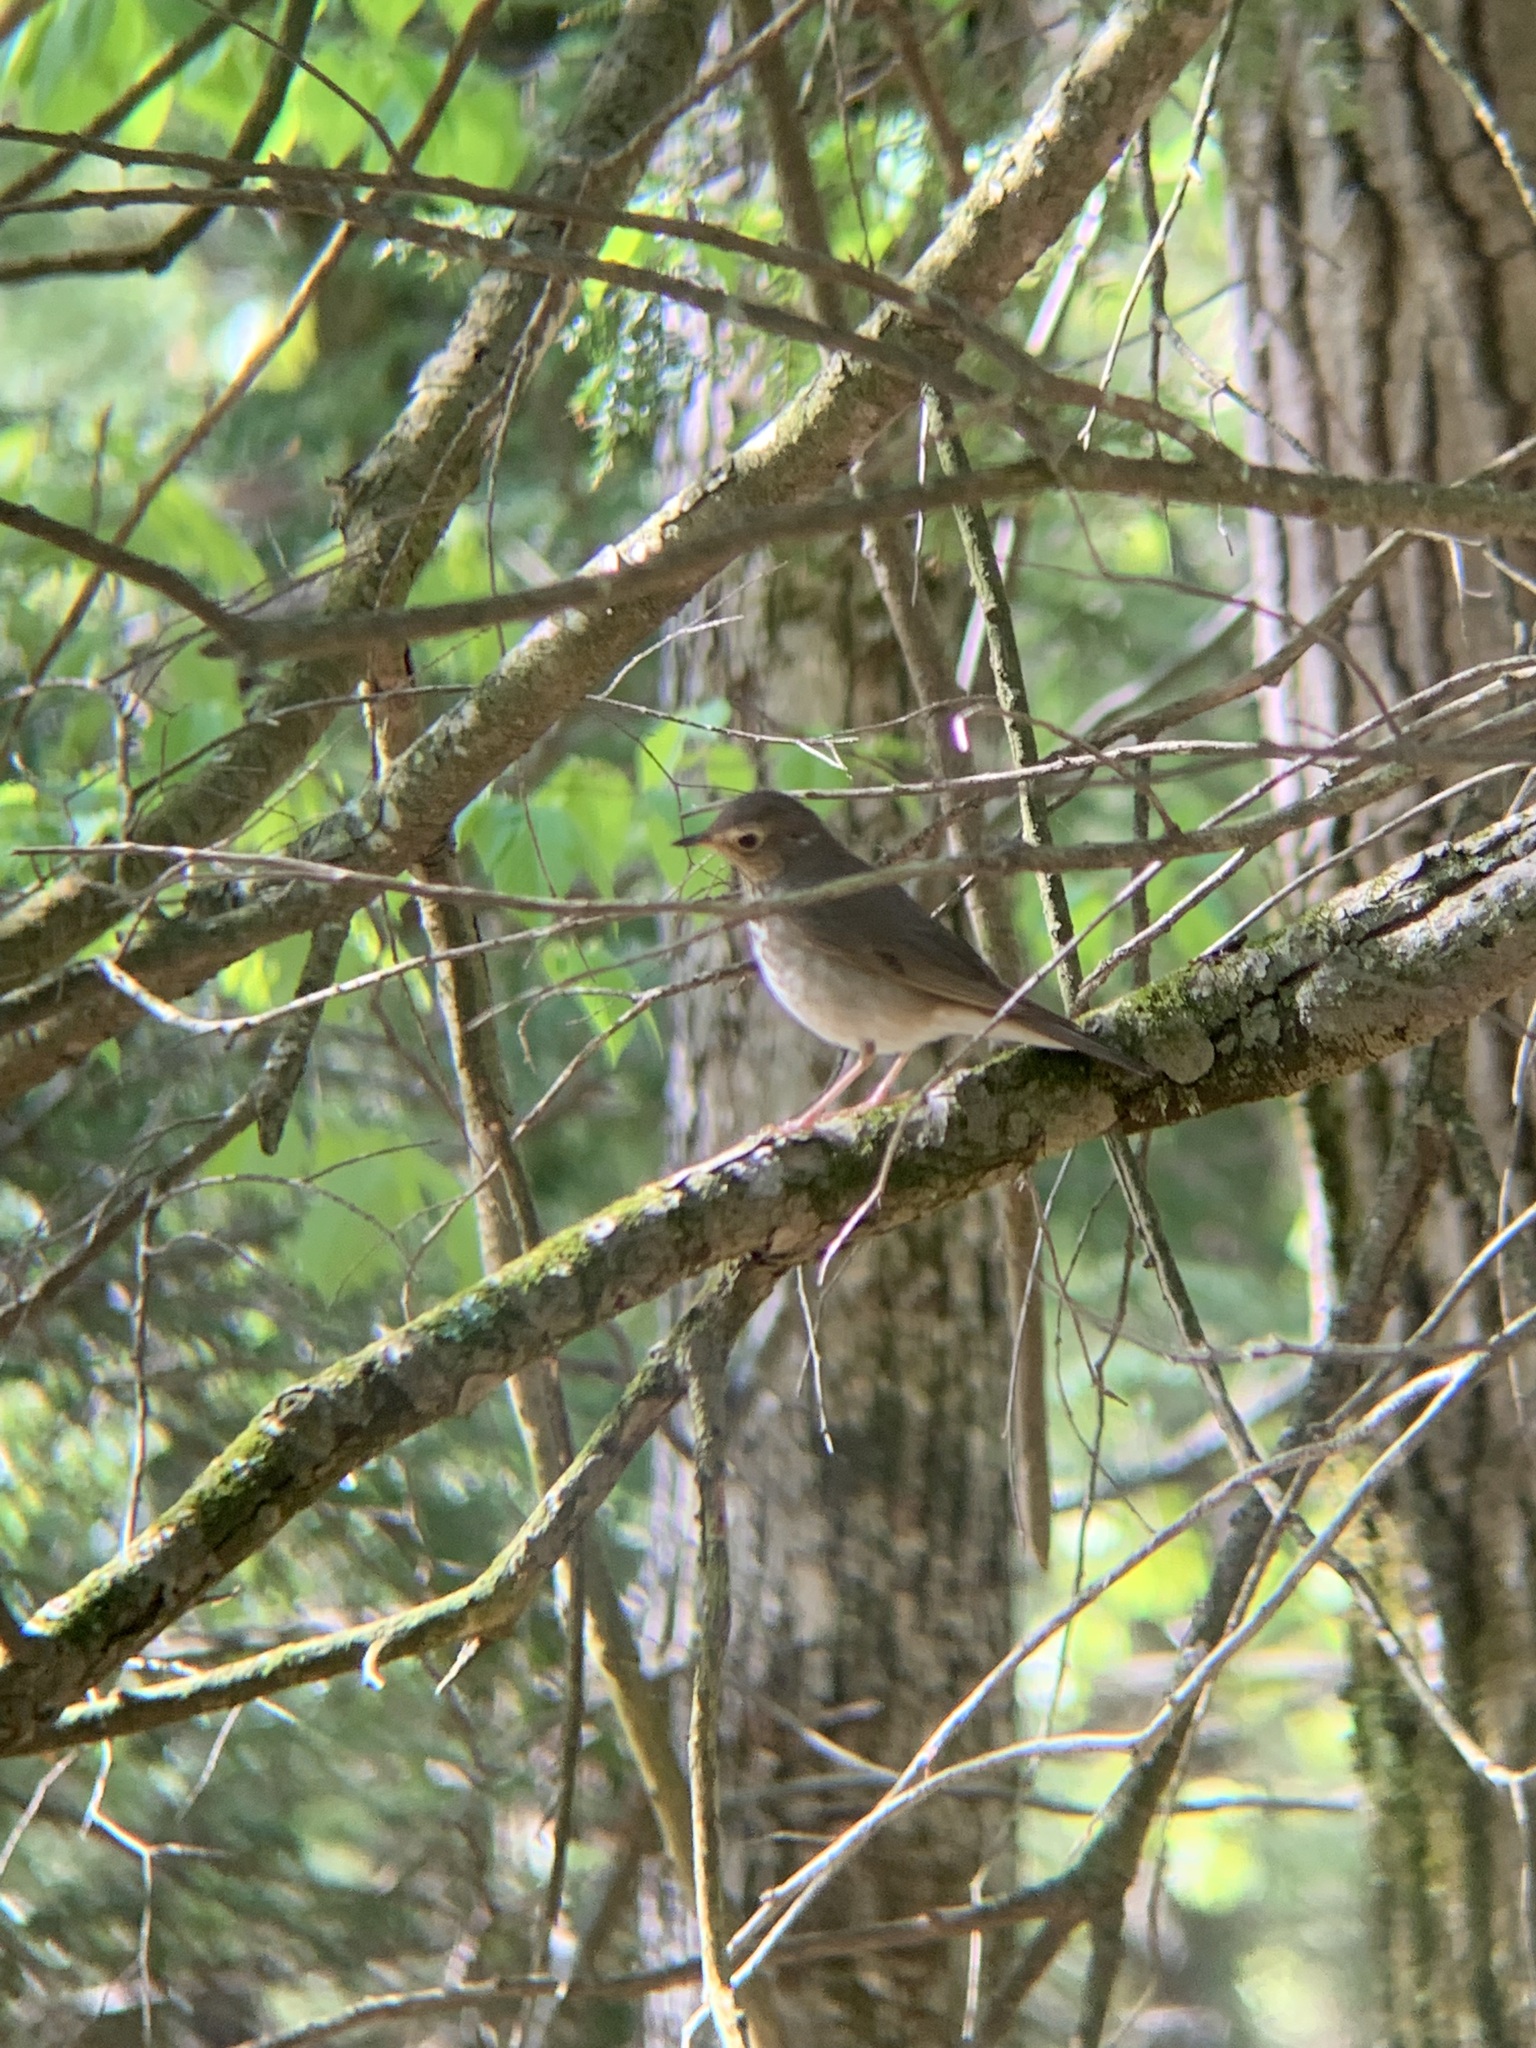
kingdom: Animalia
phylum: Chordata
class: Aves
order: Passeriformes
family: Turdidae
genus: Catharus
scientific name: Catharus ustulatus
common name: Swainson's thrush
